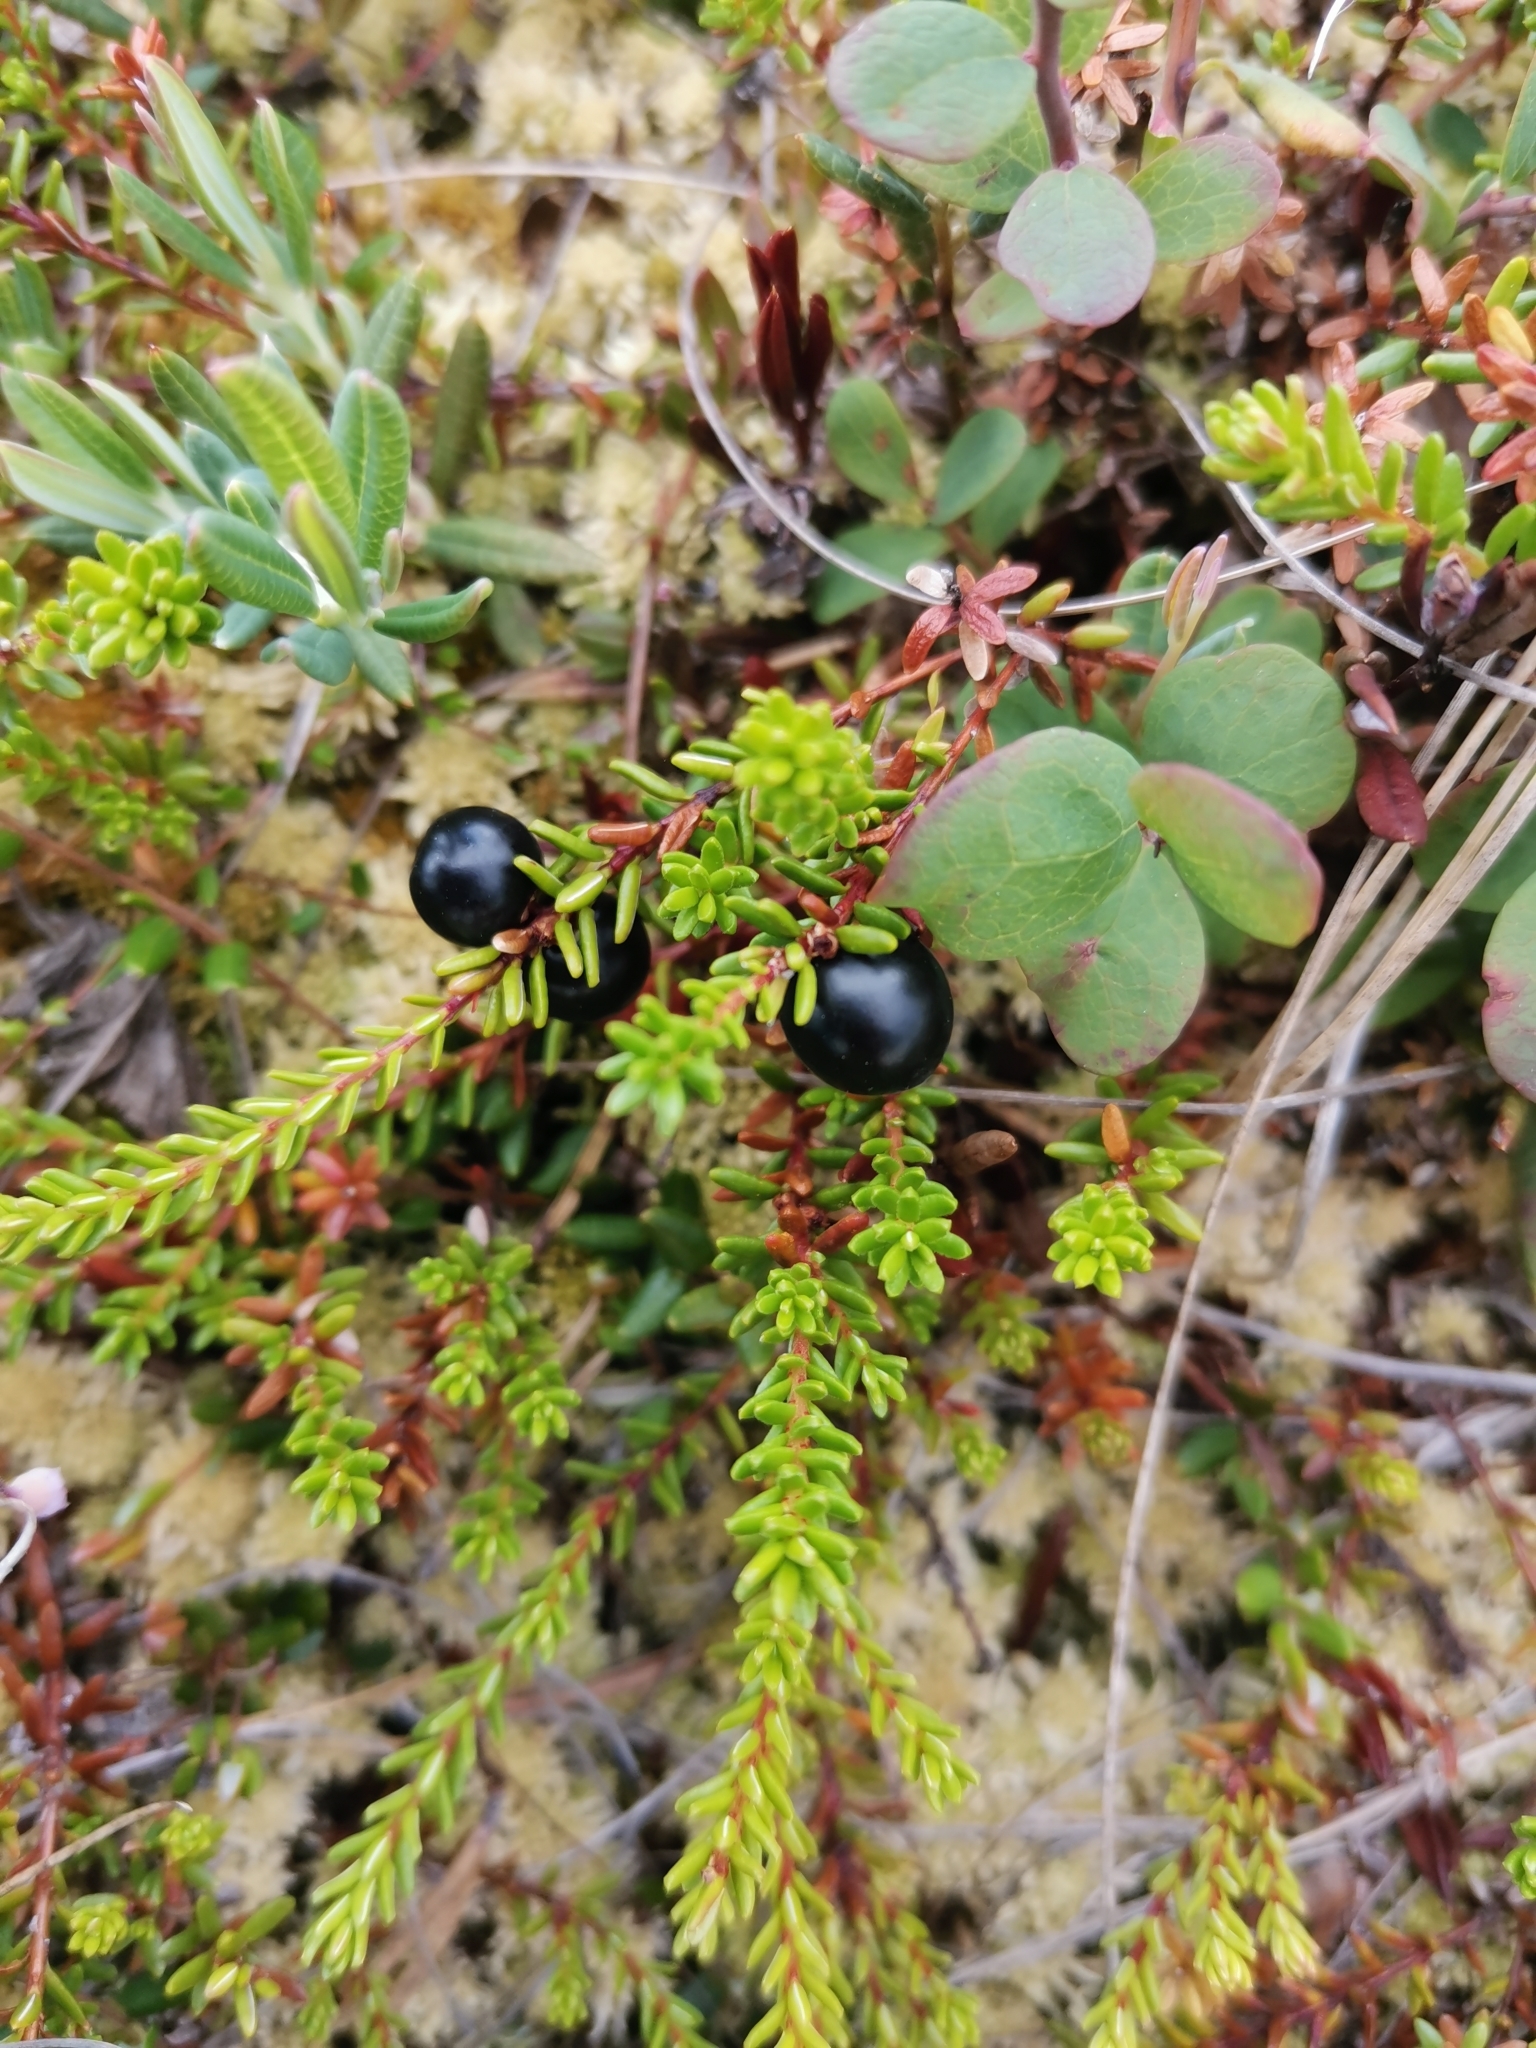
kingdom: Plantae
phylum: Tracheophyta
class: Magnoliopsida
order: Ericales
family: Ericaceae
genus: Empetrum
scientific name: Empetrum nigrum
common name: Black crowberry
